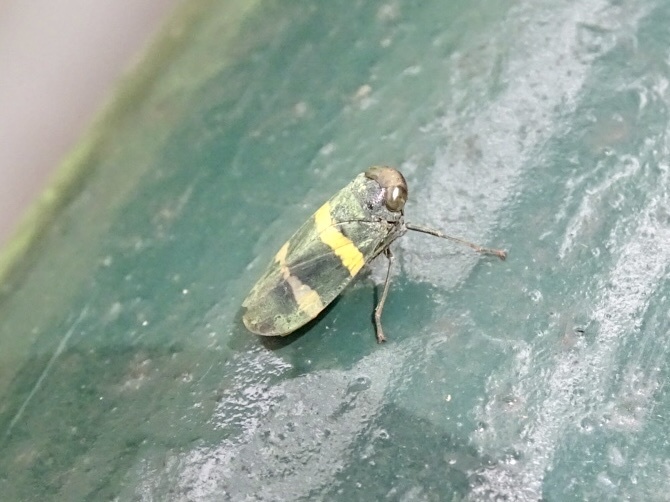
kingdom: Animalia
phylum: Arthropoda
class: Insecta
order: Hemiptera
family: Cicadellidae
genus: Olidiana
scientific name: Olidiana brevis
